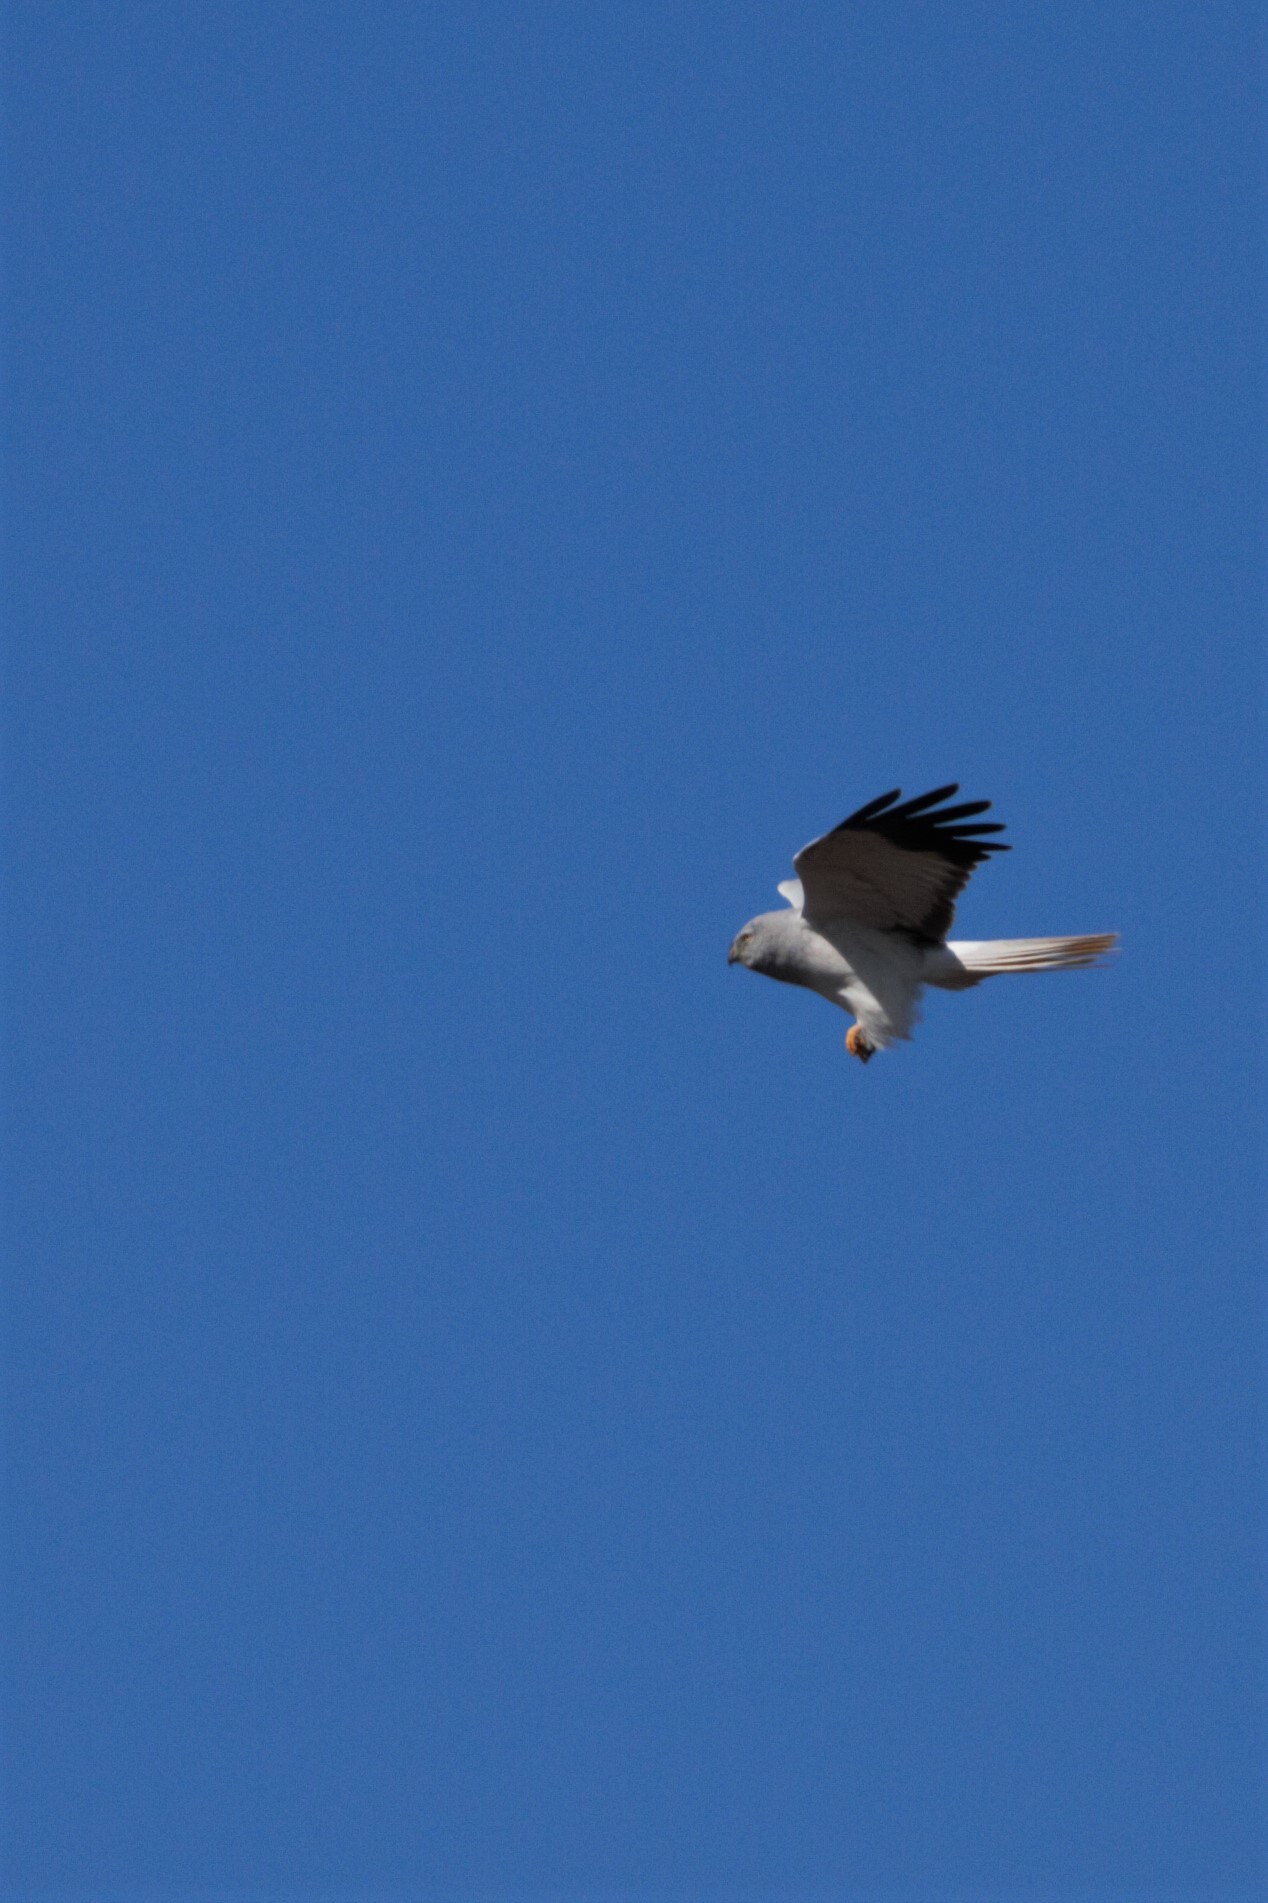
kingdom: Animalia
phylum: Chordata
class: Aves
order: Accipitriformes
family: Accipitridae
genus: Circus
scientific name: Circus cyaneus
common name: Hen harrier
